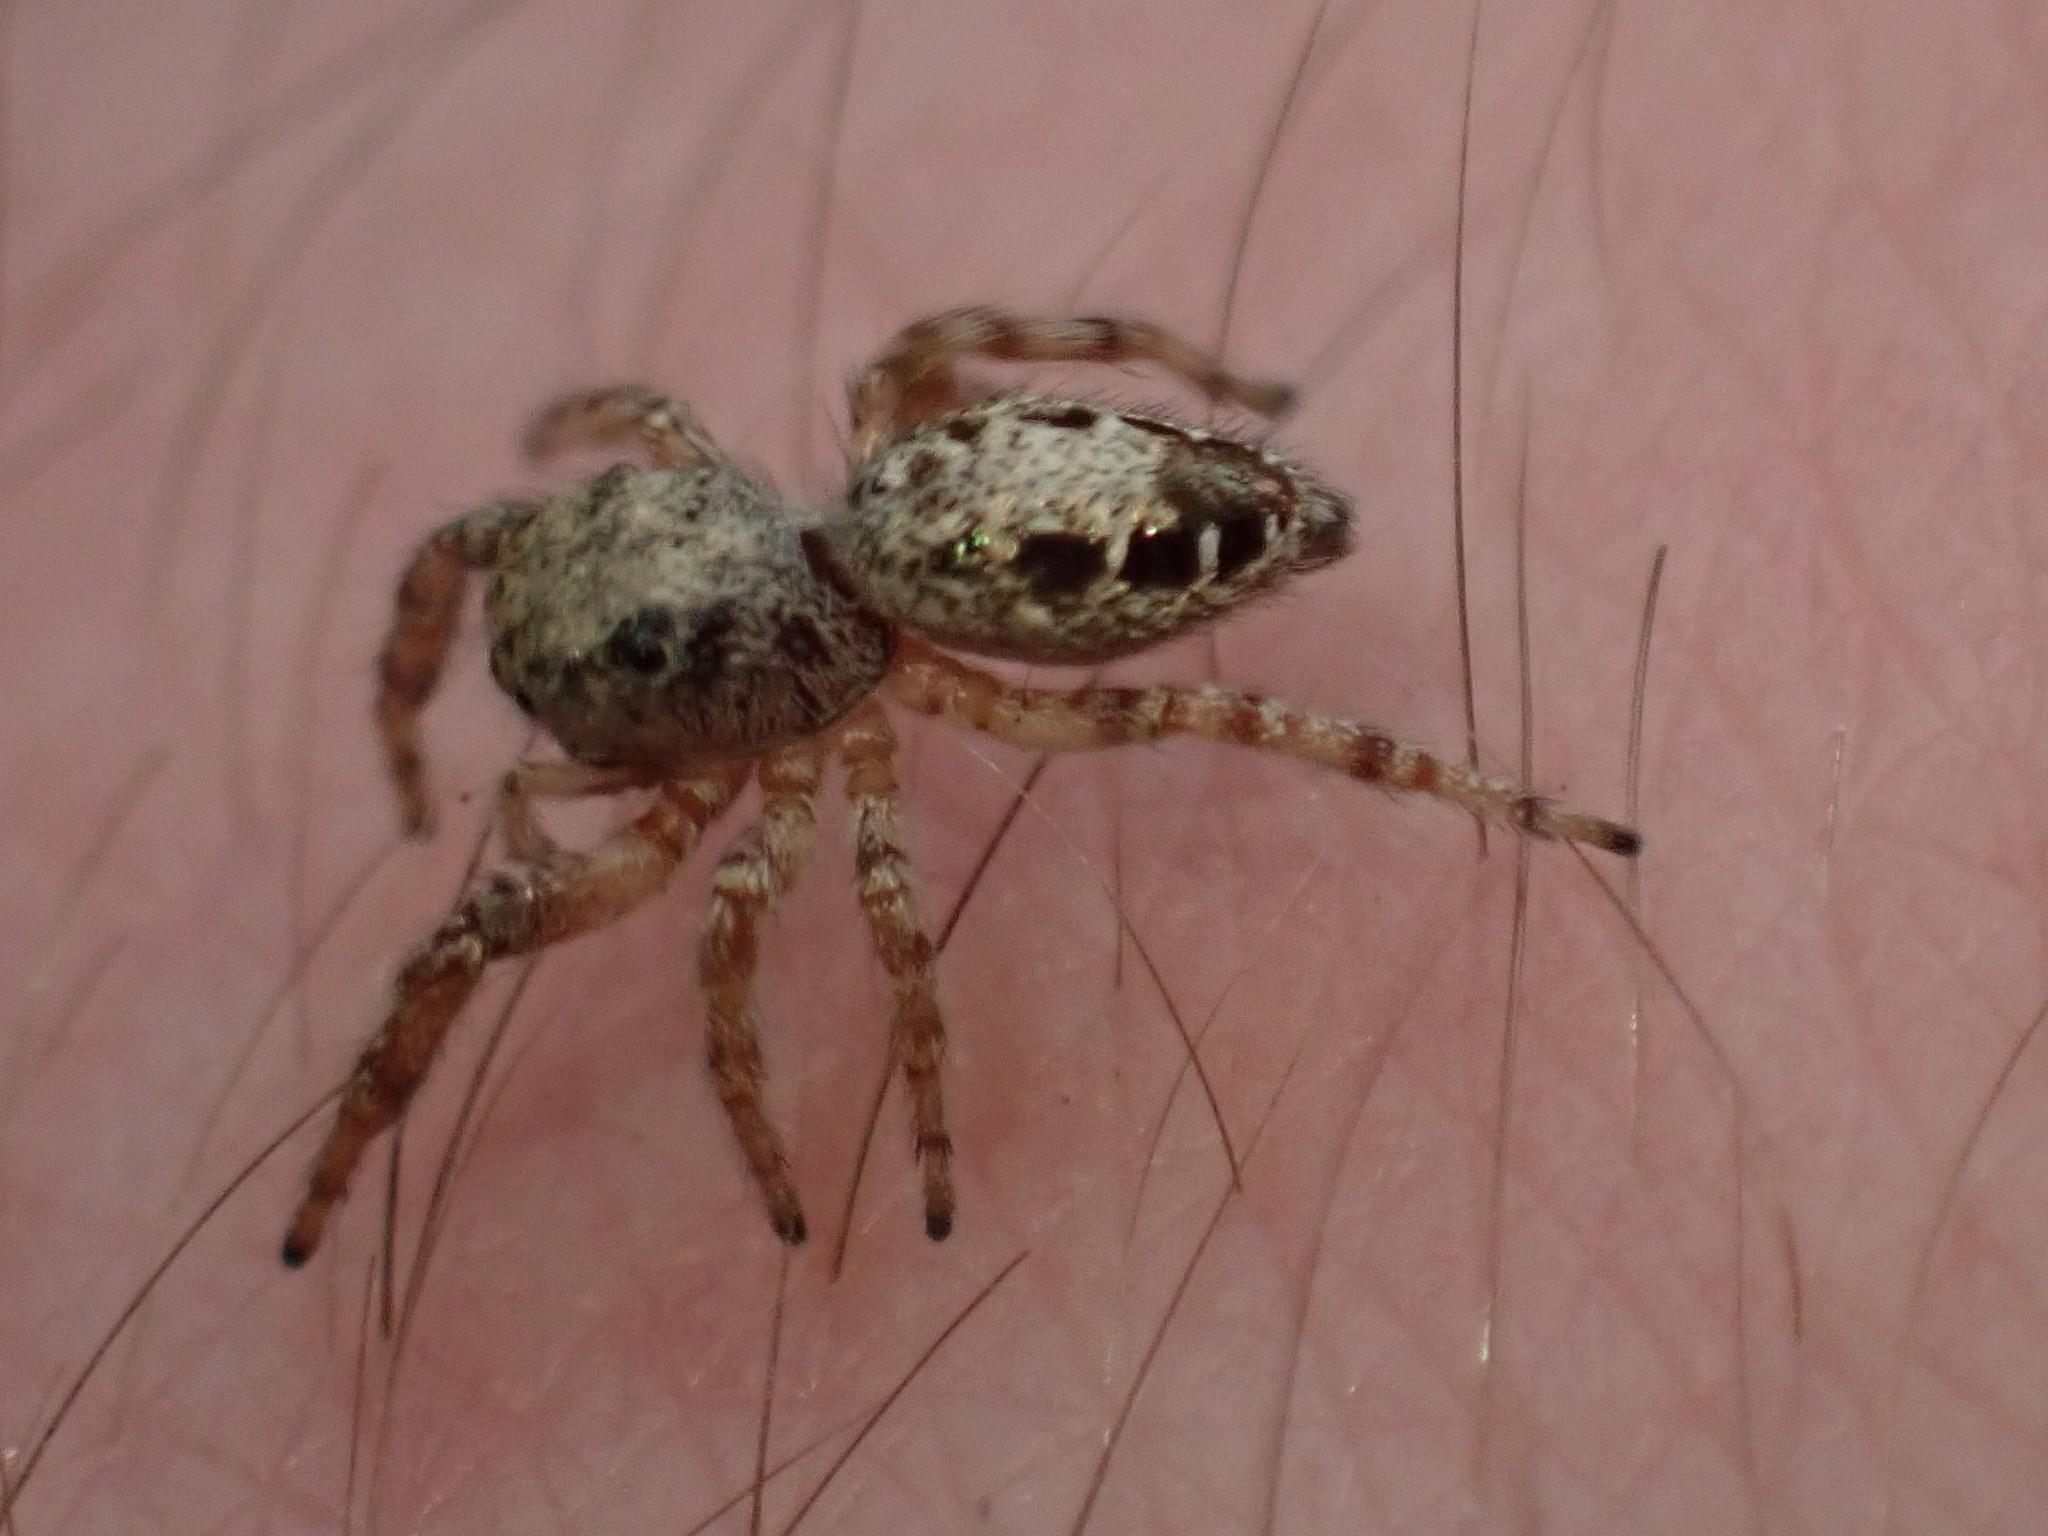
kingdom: Animalia
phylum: Arthropoda
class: Arachnida
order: Araneae
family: Salticidae
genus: Pelegrina
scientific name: Pelegrina aeneola
